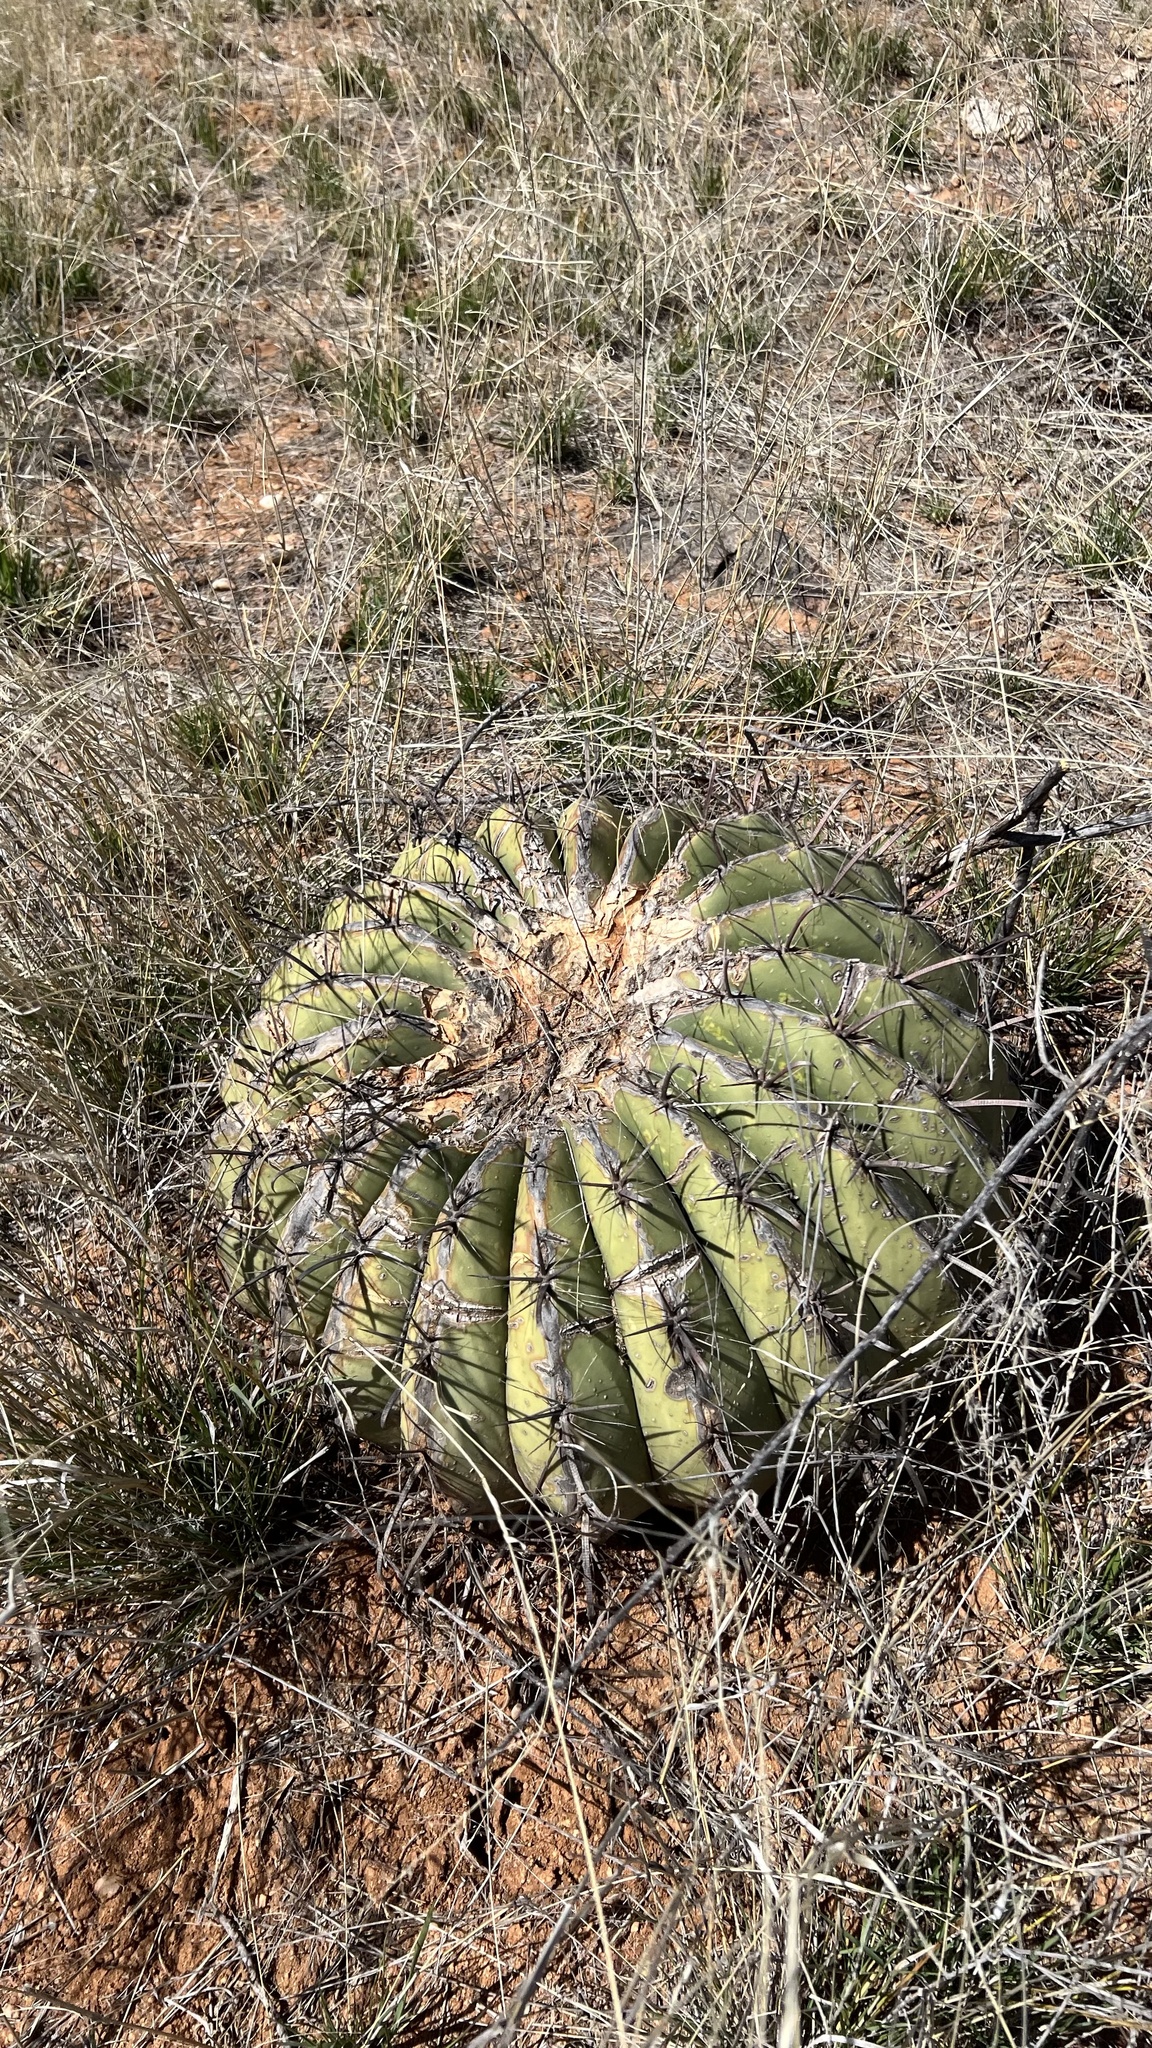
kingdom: Plantae
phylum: Tracheophyta
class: Magnoliopsida
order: Caryophyllales
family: Cactaceae
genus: Ferocactus
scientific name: Ferocactus wislizeni
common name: Candy barrel cactus
